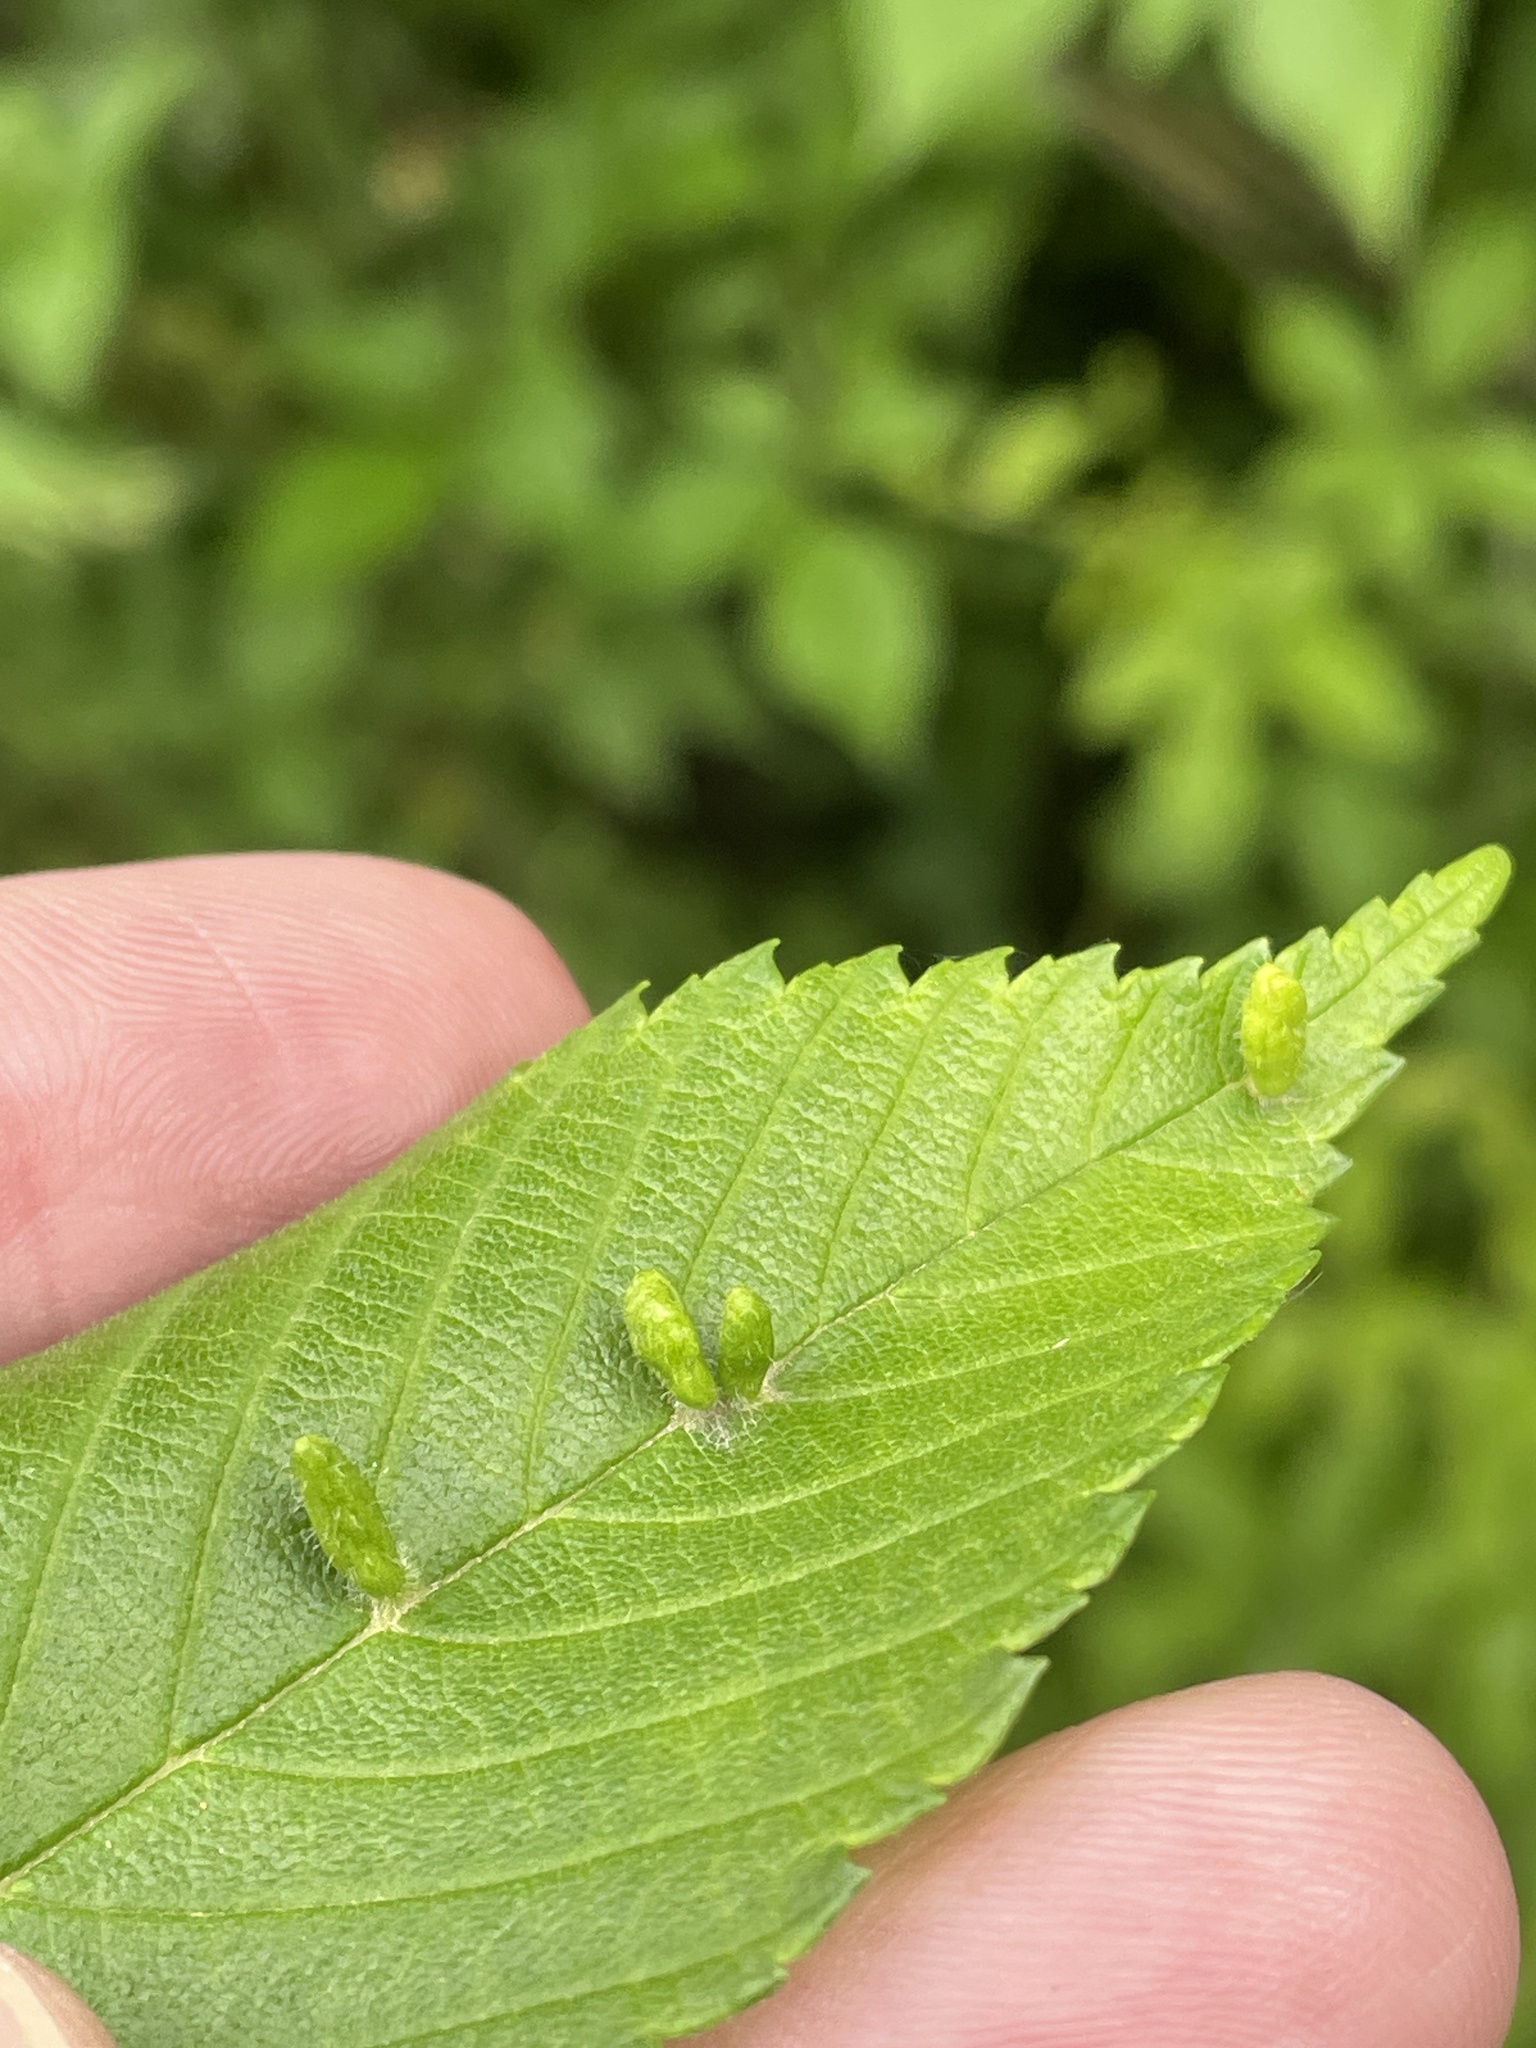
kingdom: Animalia
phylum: Arthropoda
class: Arachnida
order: Trombidiformes
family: Eriophyidae
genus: Aceria
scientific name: Aceria
